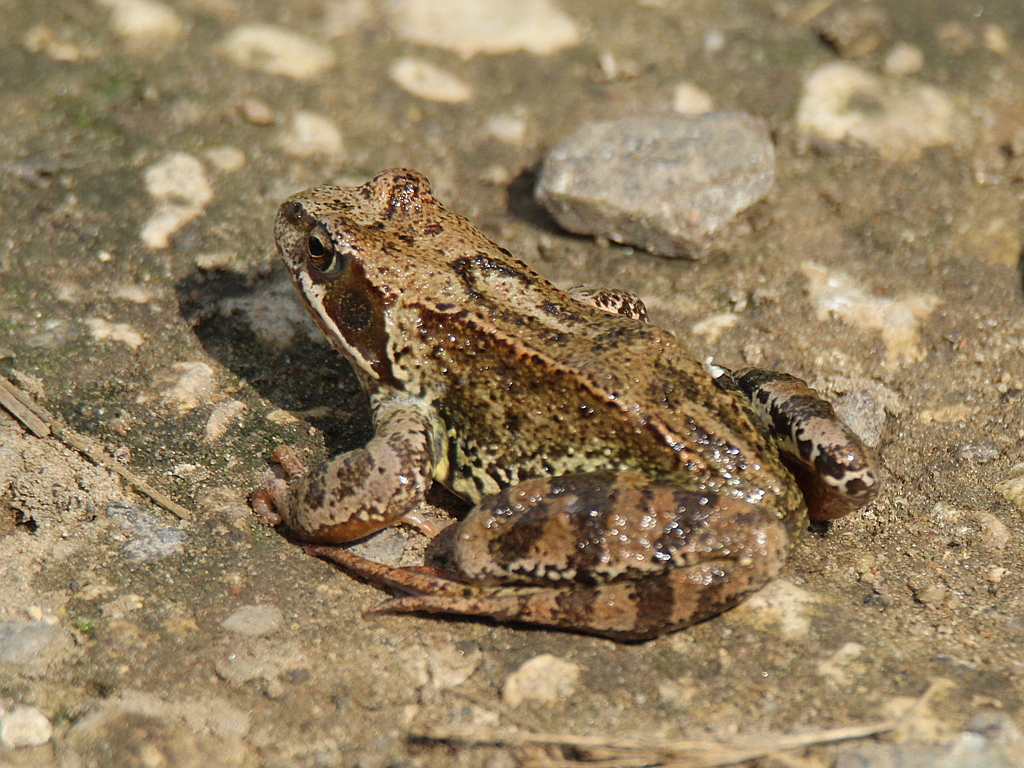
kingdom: Animalia
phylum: Chordata
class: Amphibia
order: Anura
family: Ranidae
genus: Rana
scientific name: Rana temporaria
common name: Common frog
